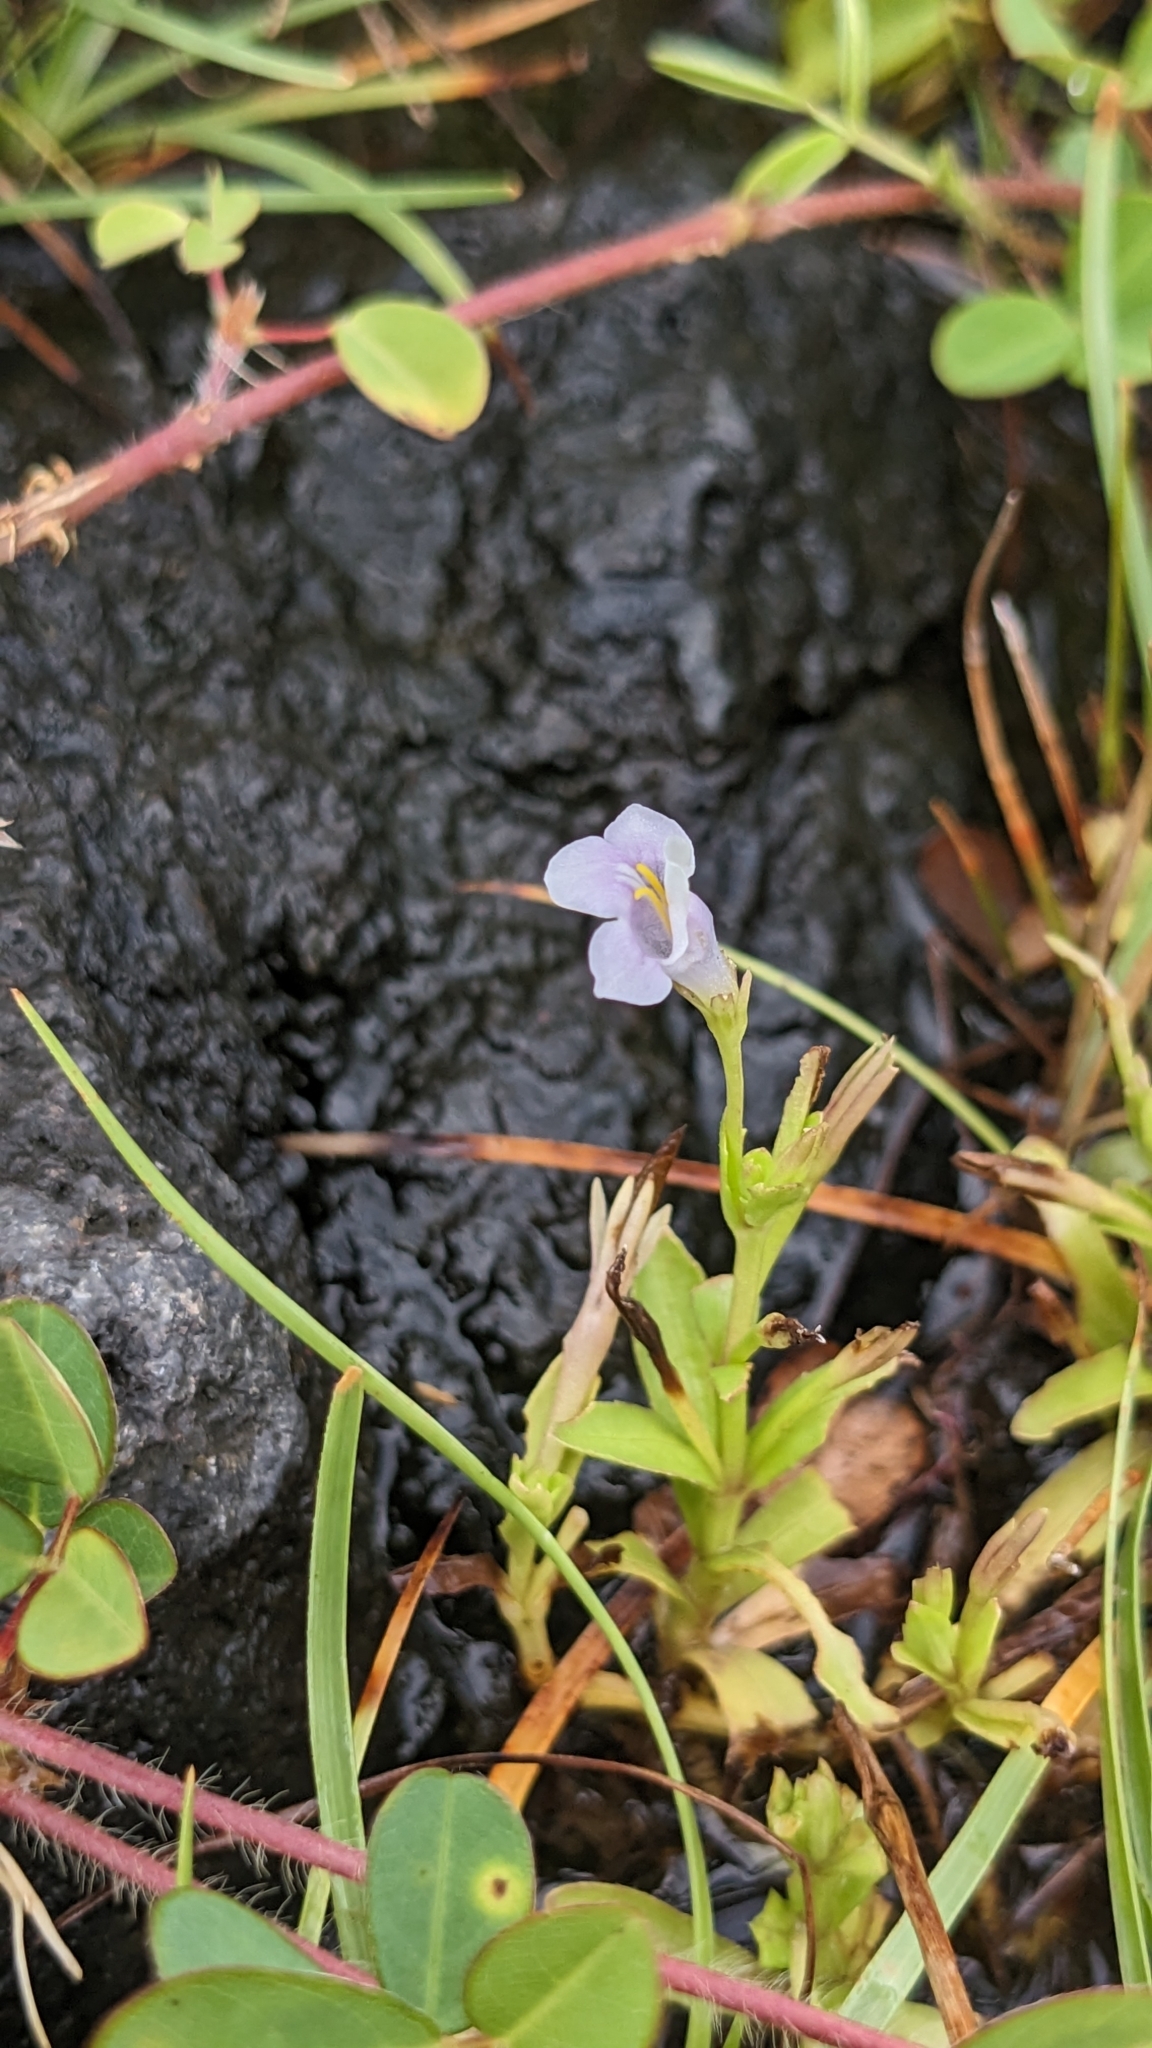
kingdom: Plantae
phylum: Tracheophyta
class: Magnoliopsida
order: Lamiales
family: Linderniaceae
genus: Bonnaya
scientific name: Bonnaya antipoda
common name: Sparrow false pimpernel
